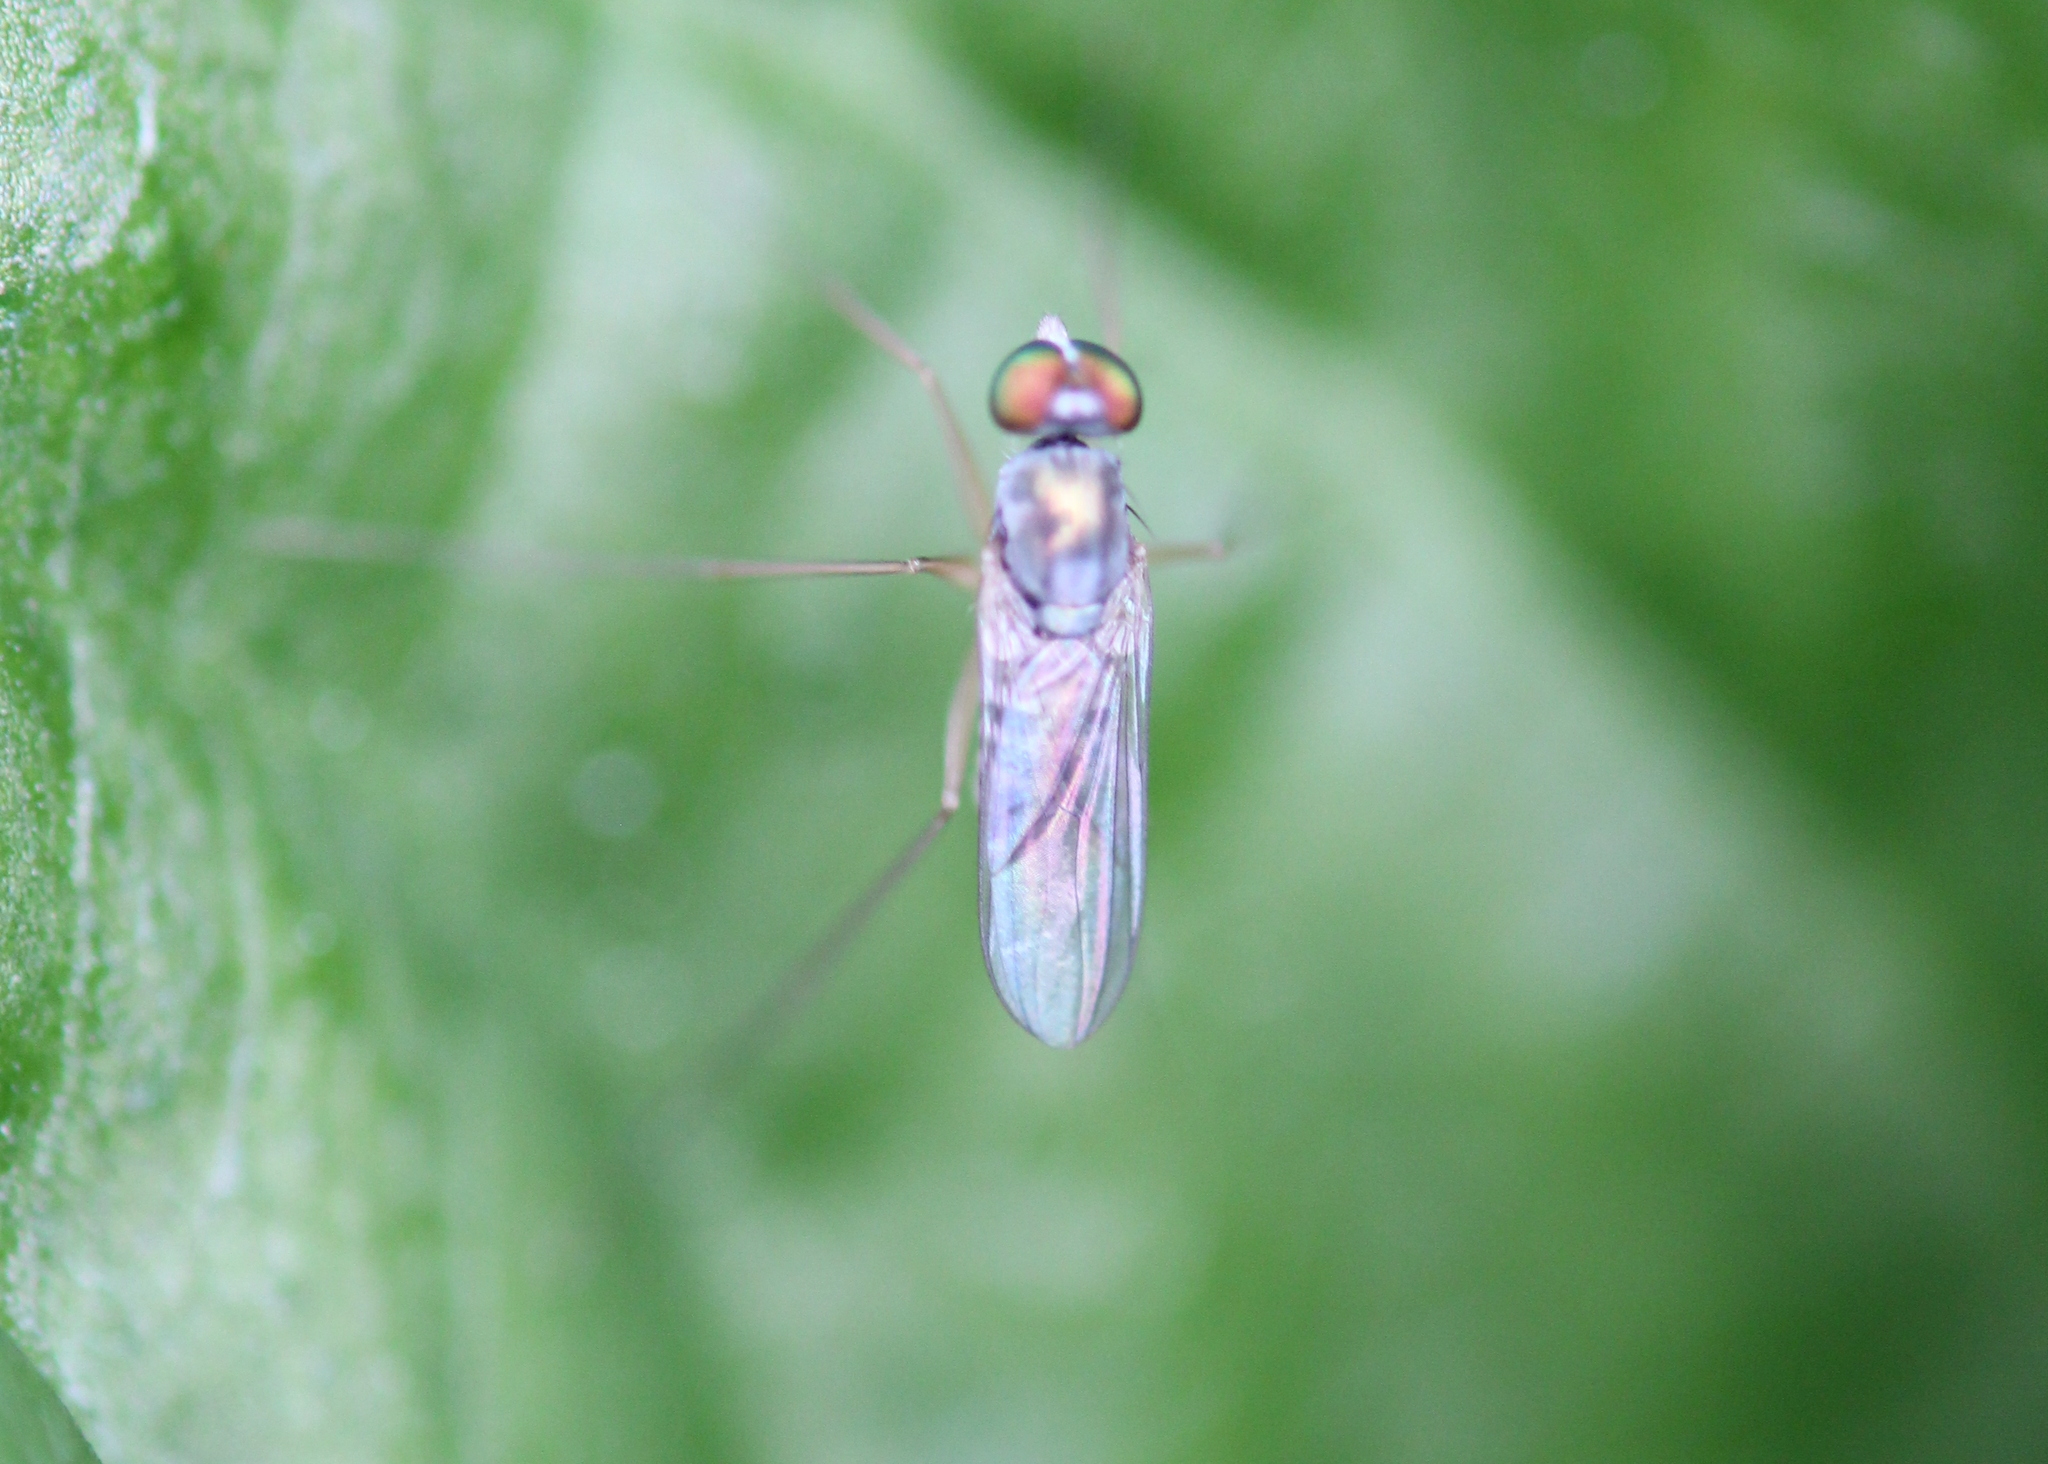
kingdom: Animalia
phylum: Arthropoda
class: Insecta
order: Diptera
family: Dolichopodidae
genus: Dactylomyia
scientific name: Dactylomyia lateralis
